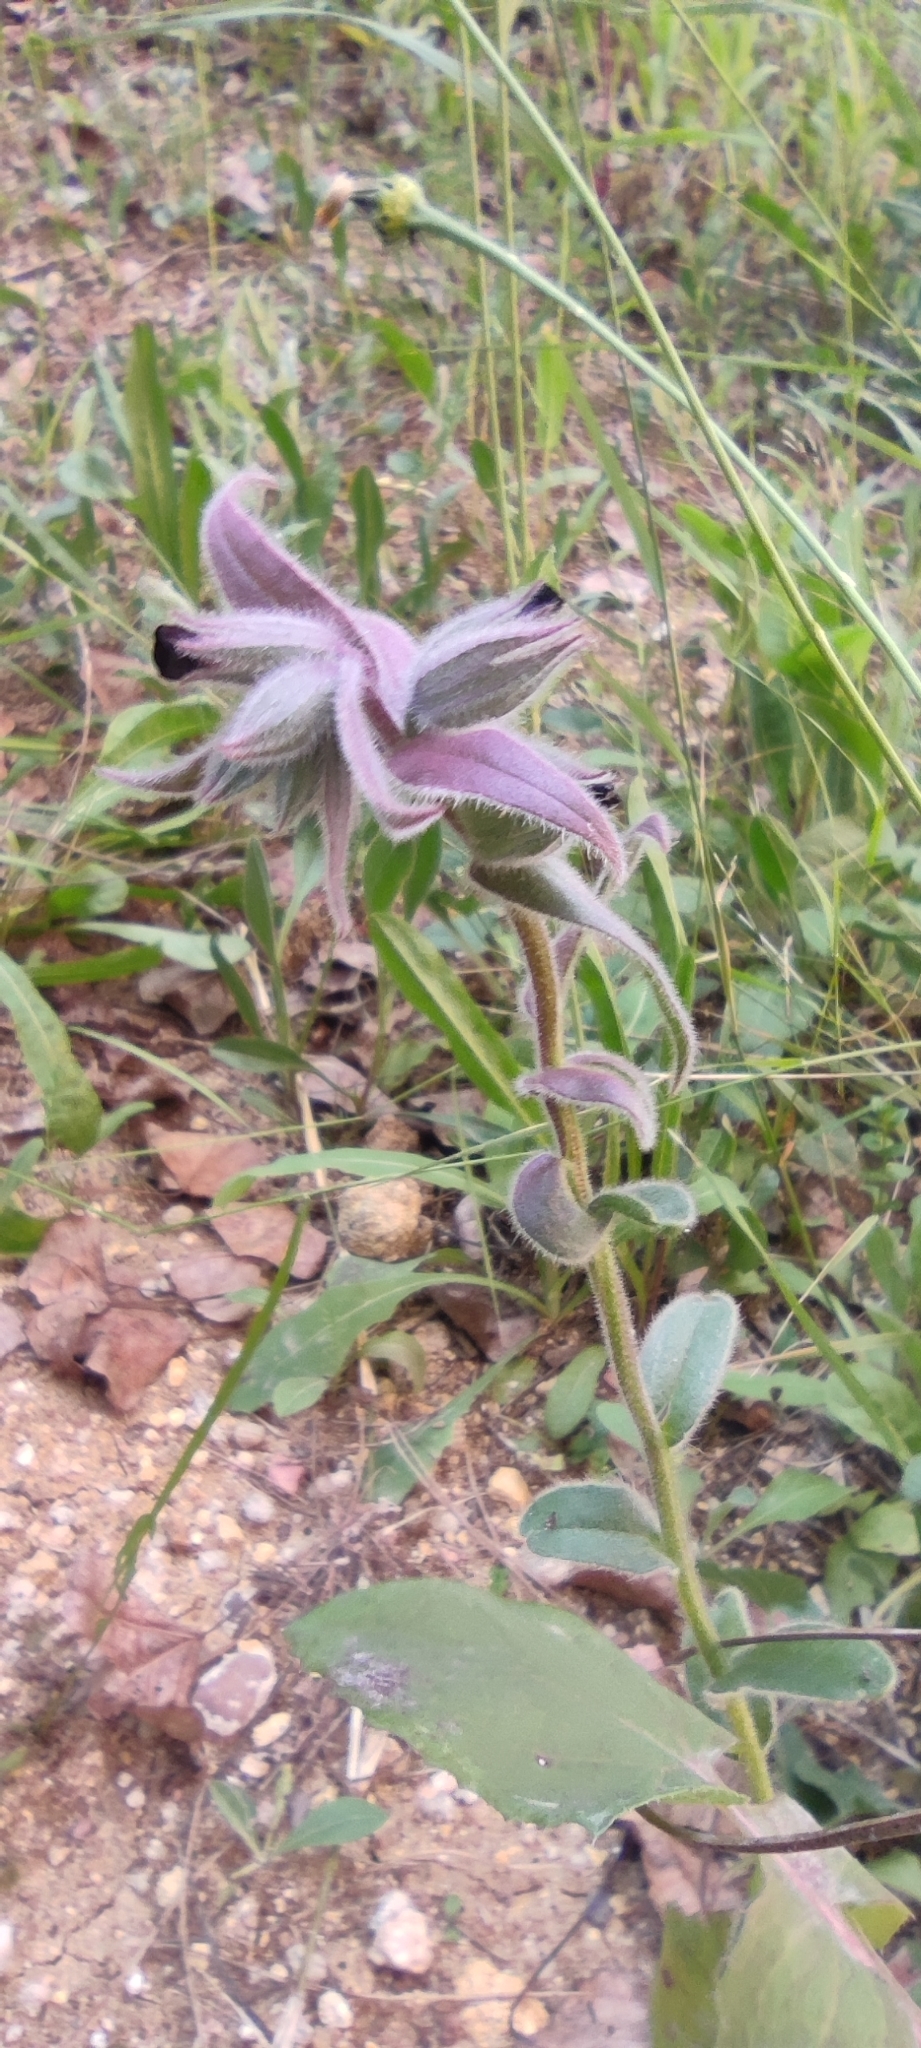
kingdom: Plantae
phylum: Tracheophyta
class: Magnoliopsida
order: Boraginales
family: Boraginaceae
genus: Nonea
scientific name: Nonea vesicaria
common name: Red monkswort
